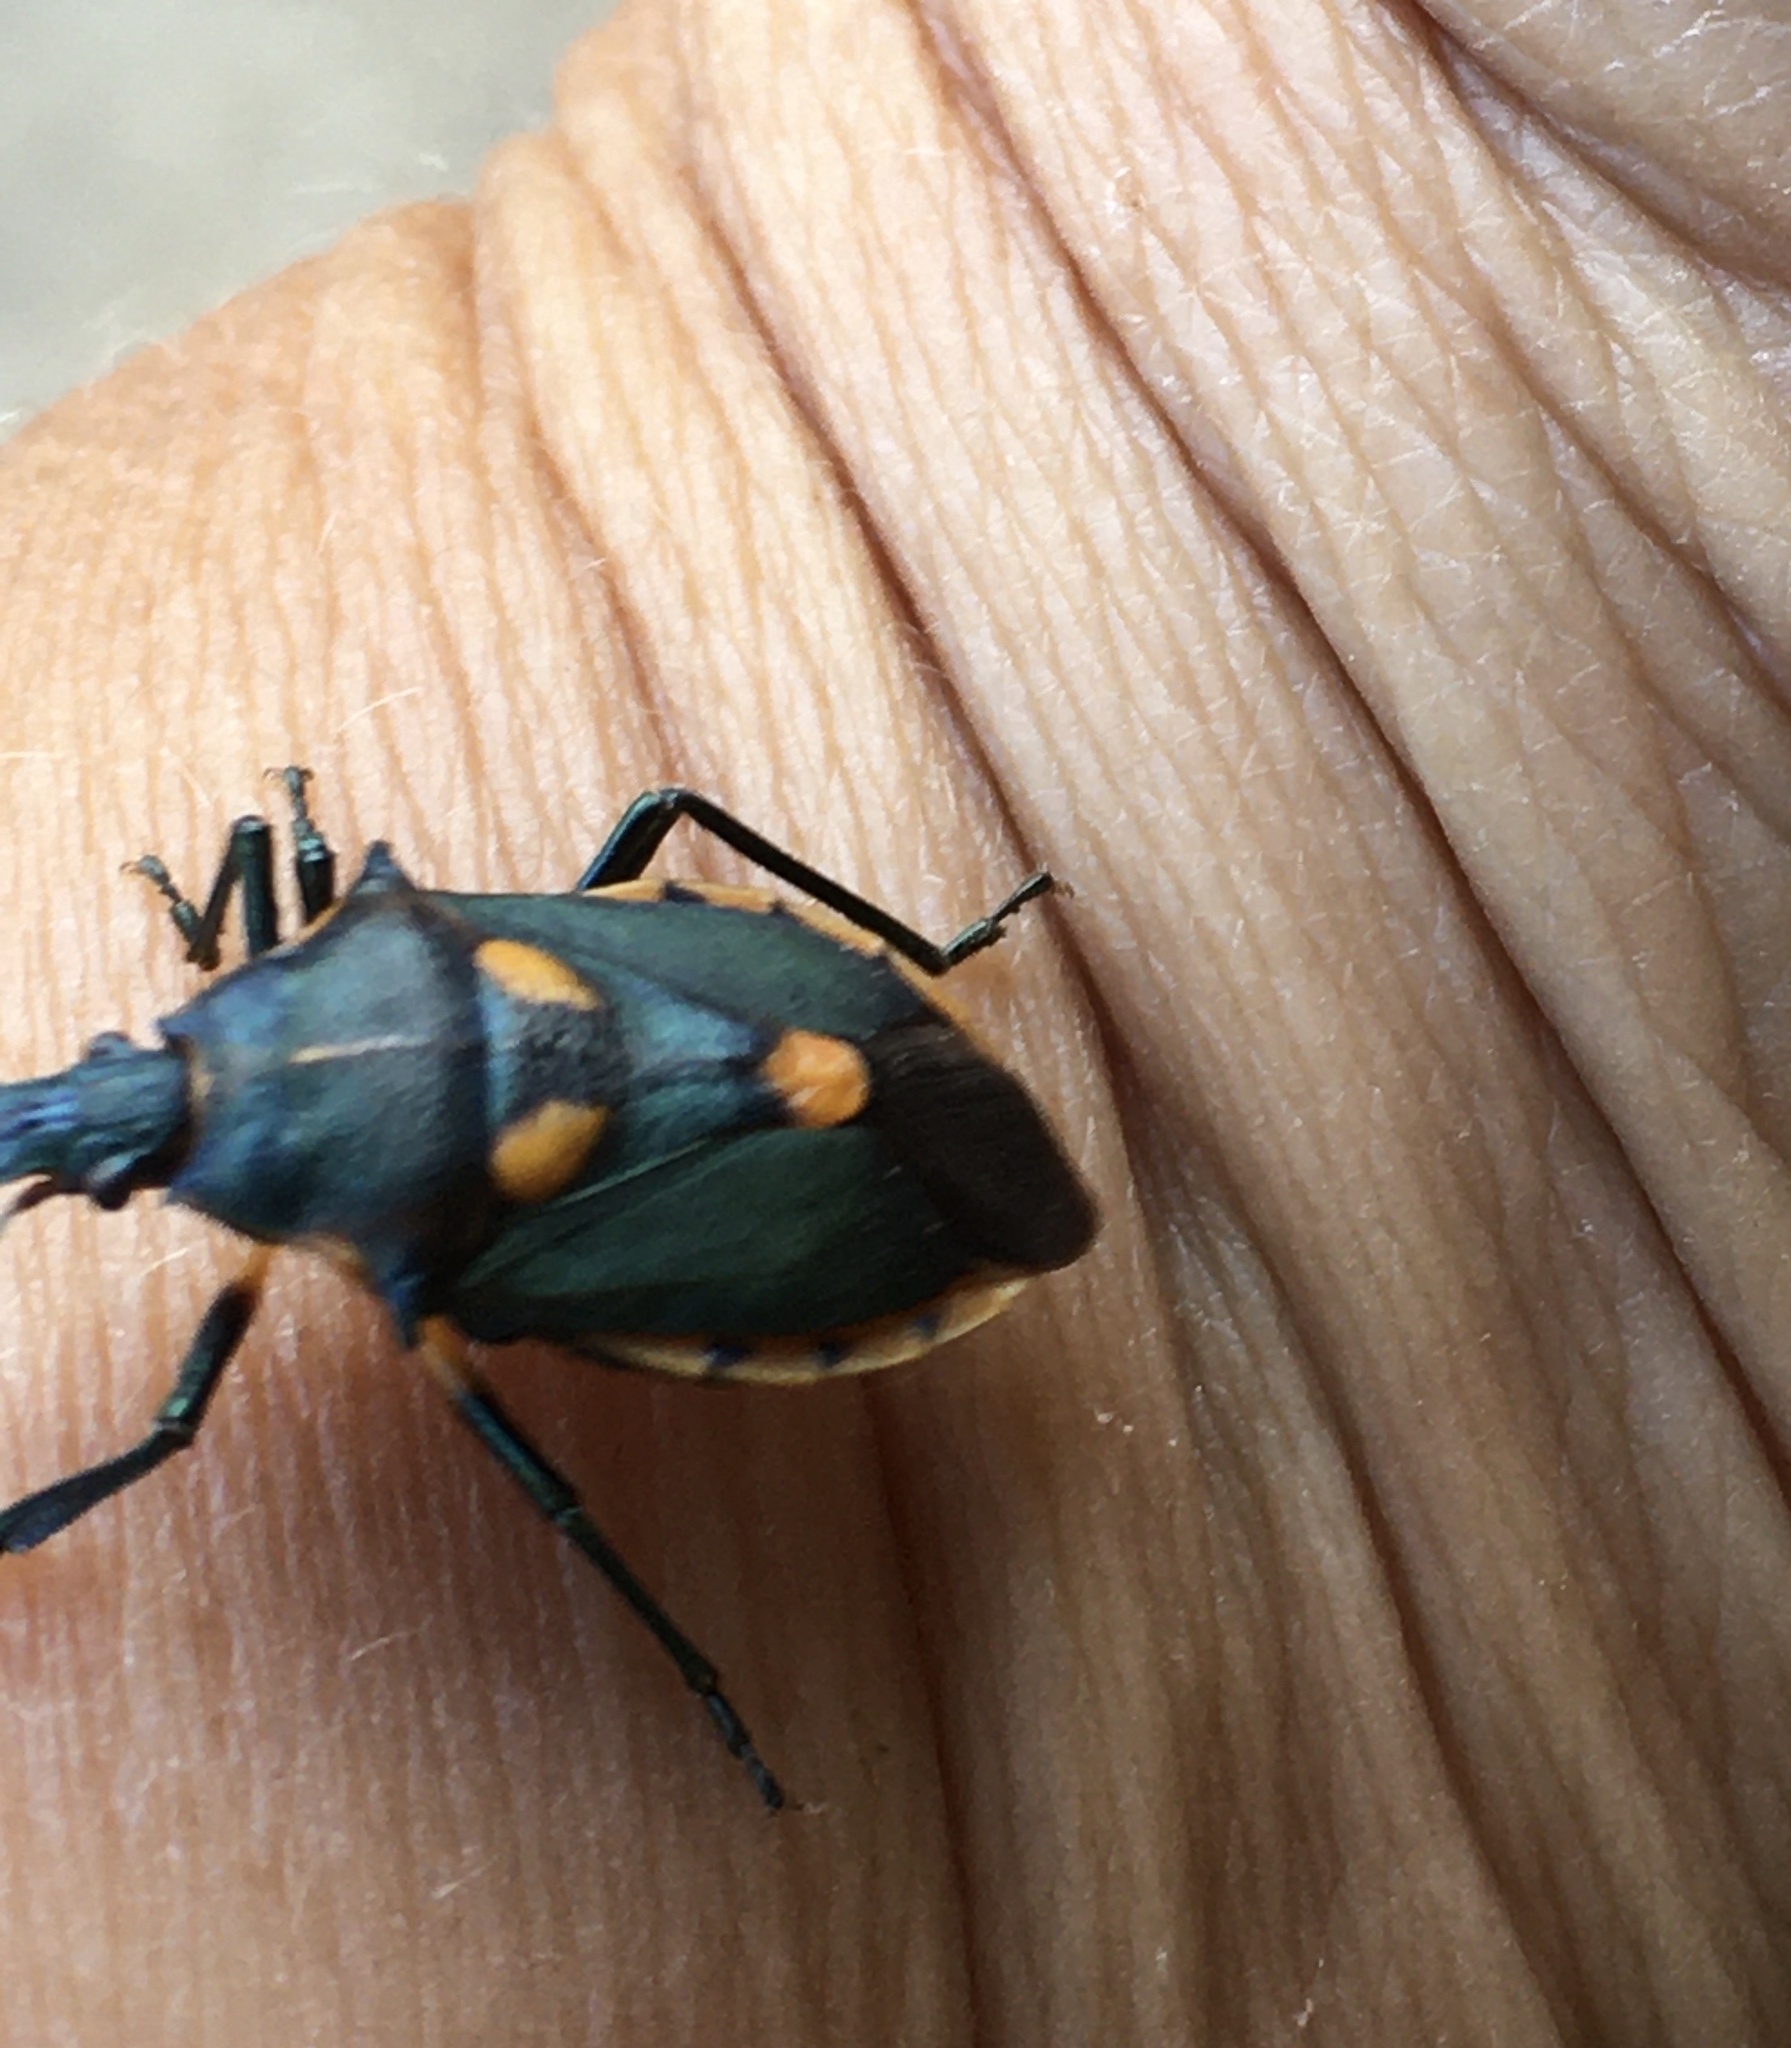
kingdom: Animalia
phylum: Arthropoda
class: Insecta
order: Hemiptera
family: Pentatomidae
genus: Euthyrhynchus
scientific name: Euthyrhynchus floridanus
